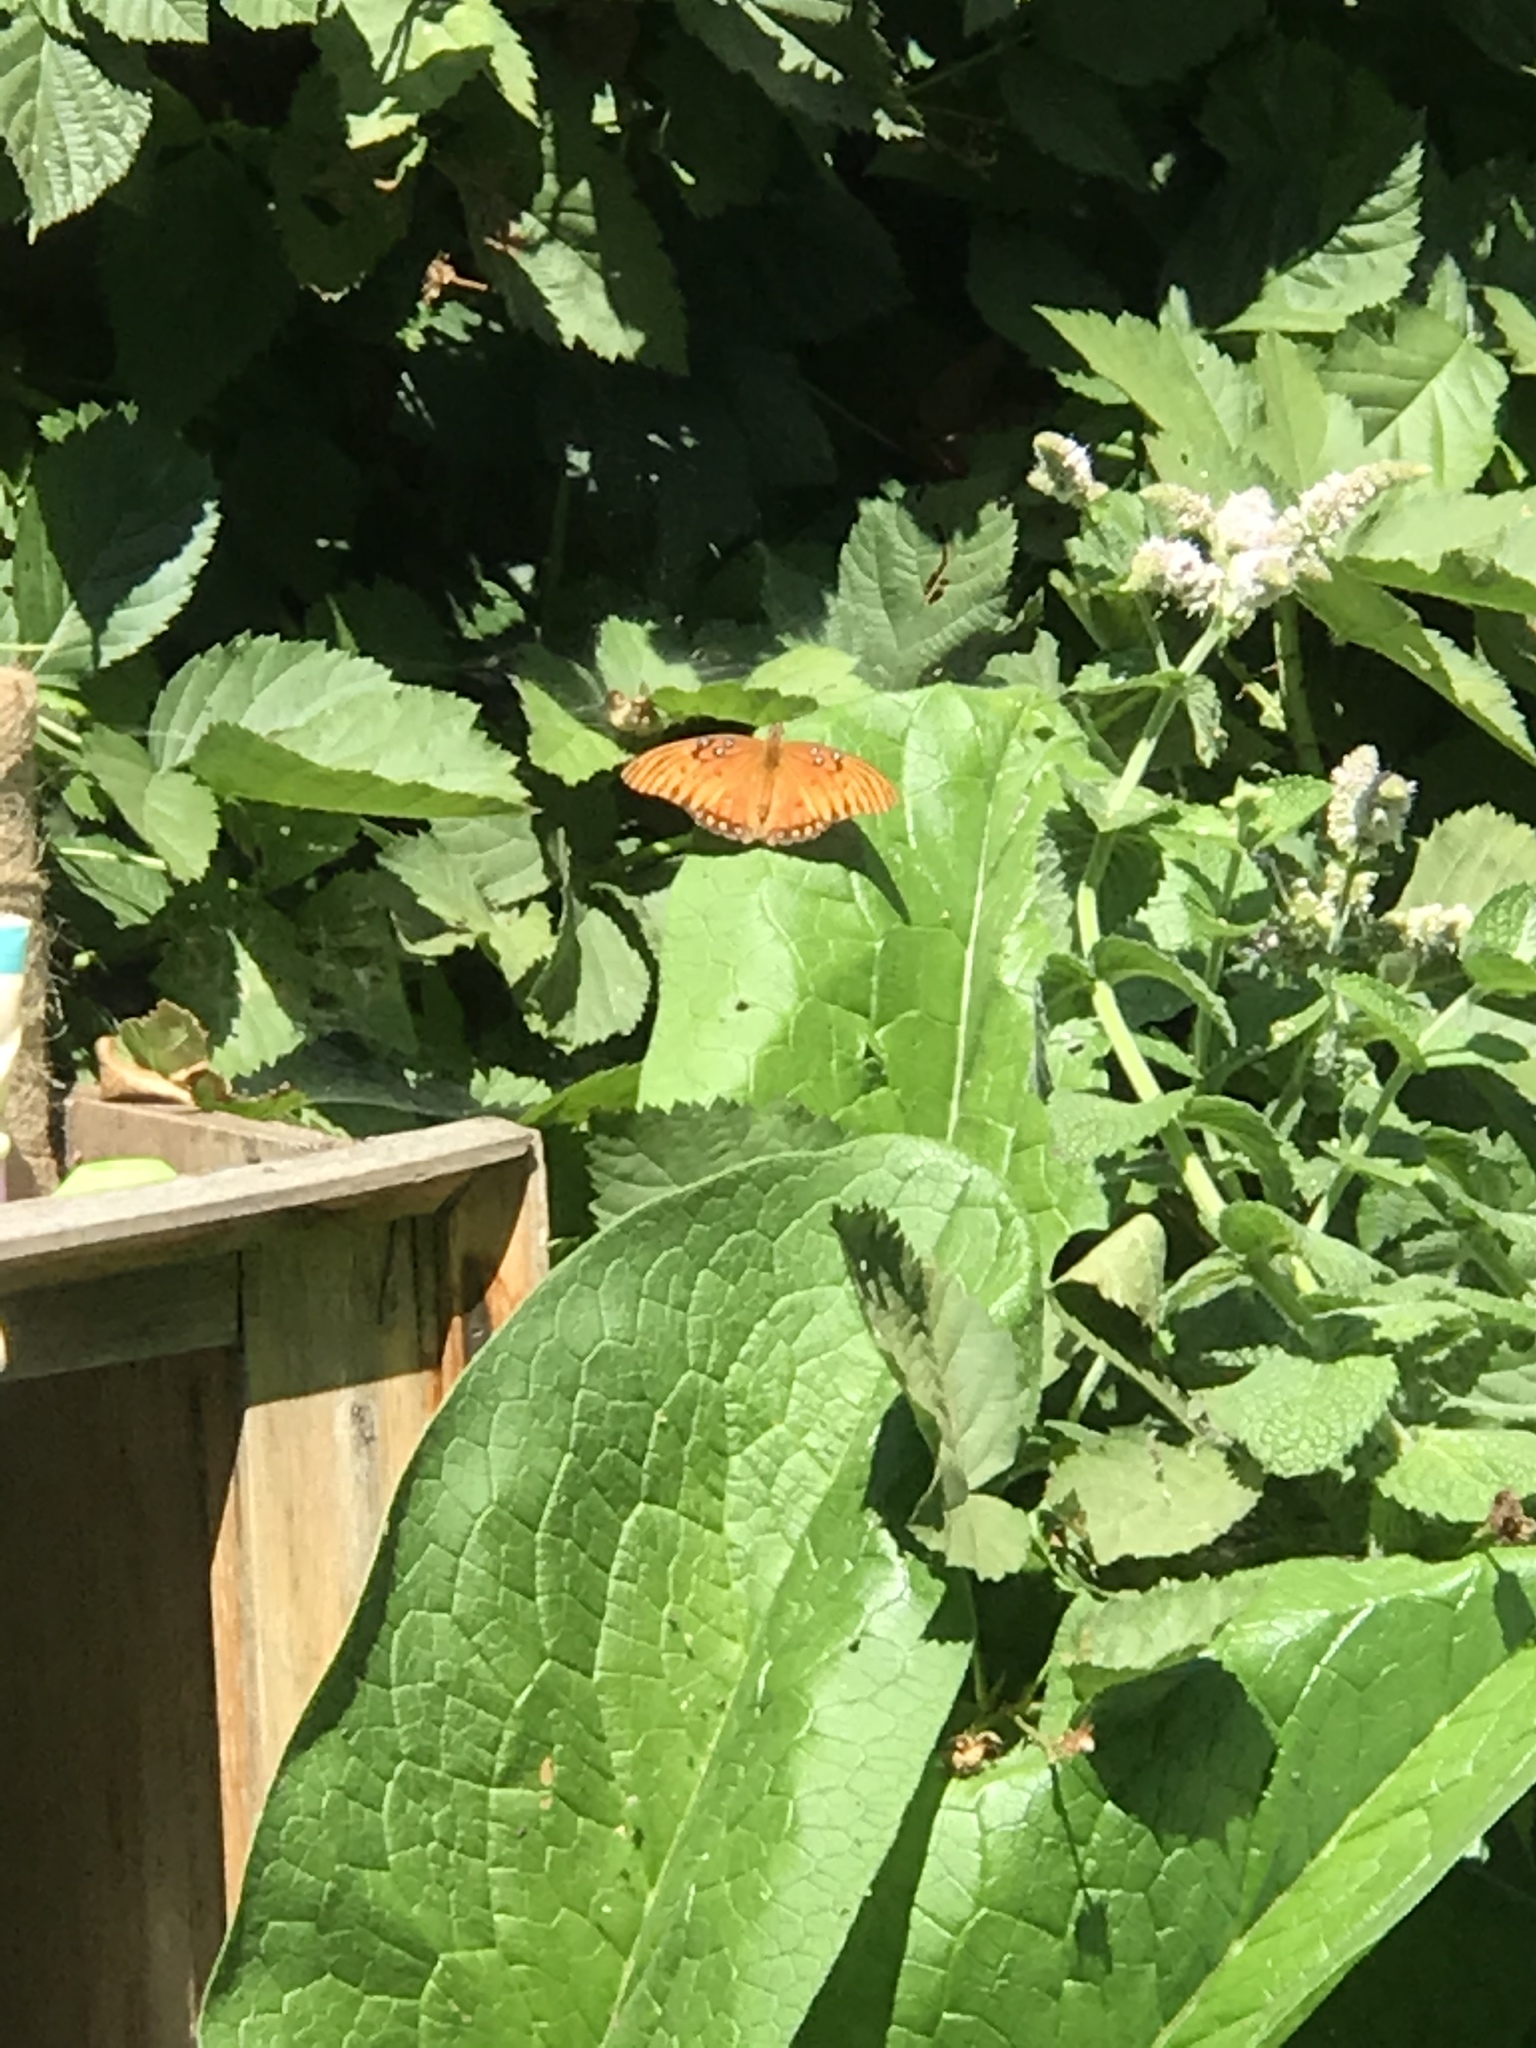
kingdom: Animalia
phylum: Arthropoda
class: Insecta
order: Lepidoptera
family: Nymphalidae
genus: Dione
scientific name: Dione vanillae
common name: Gulf fritillary
